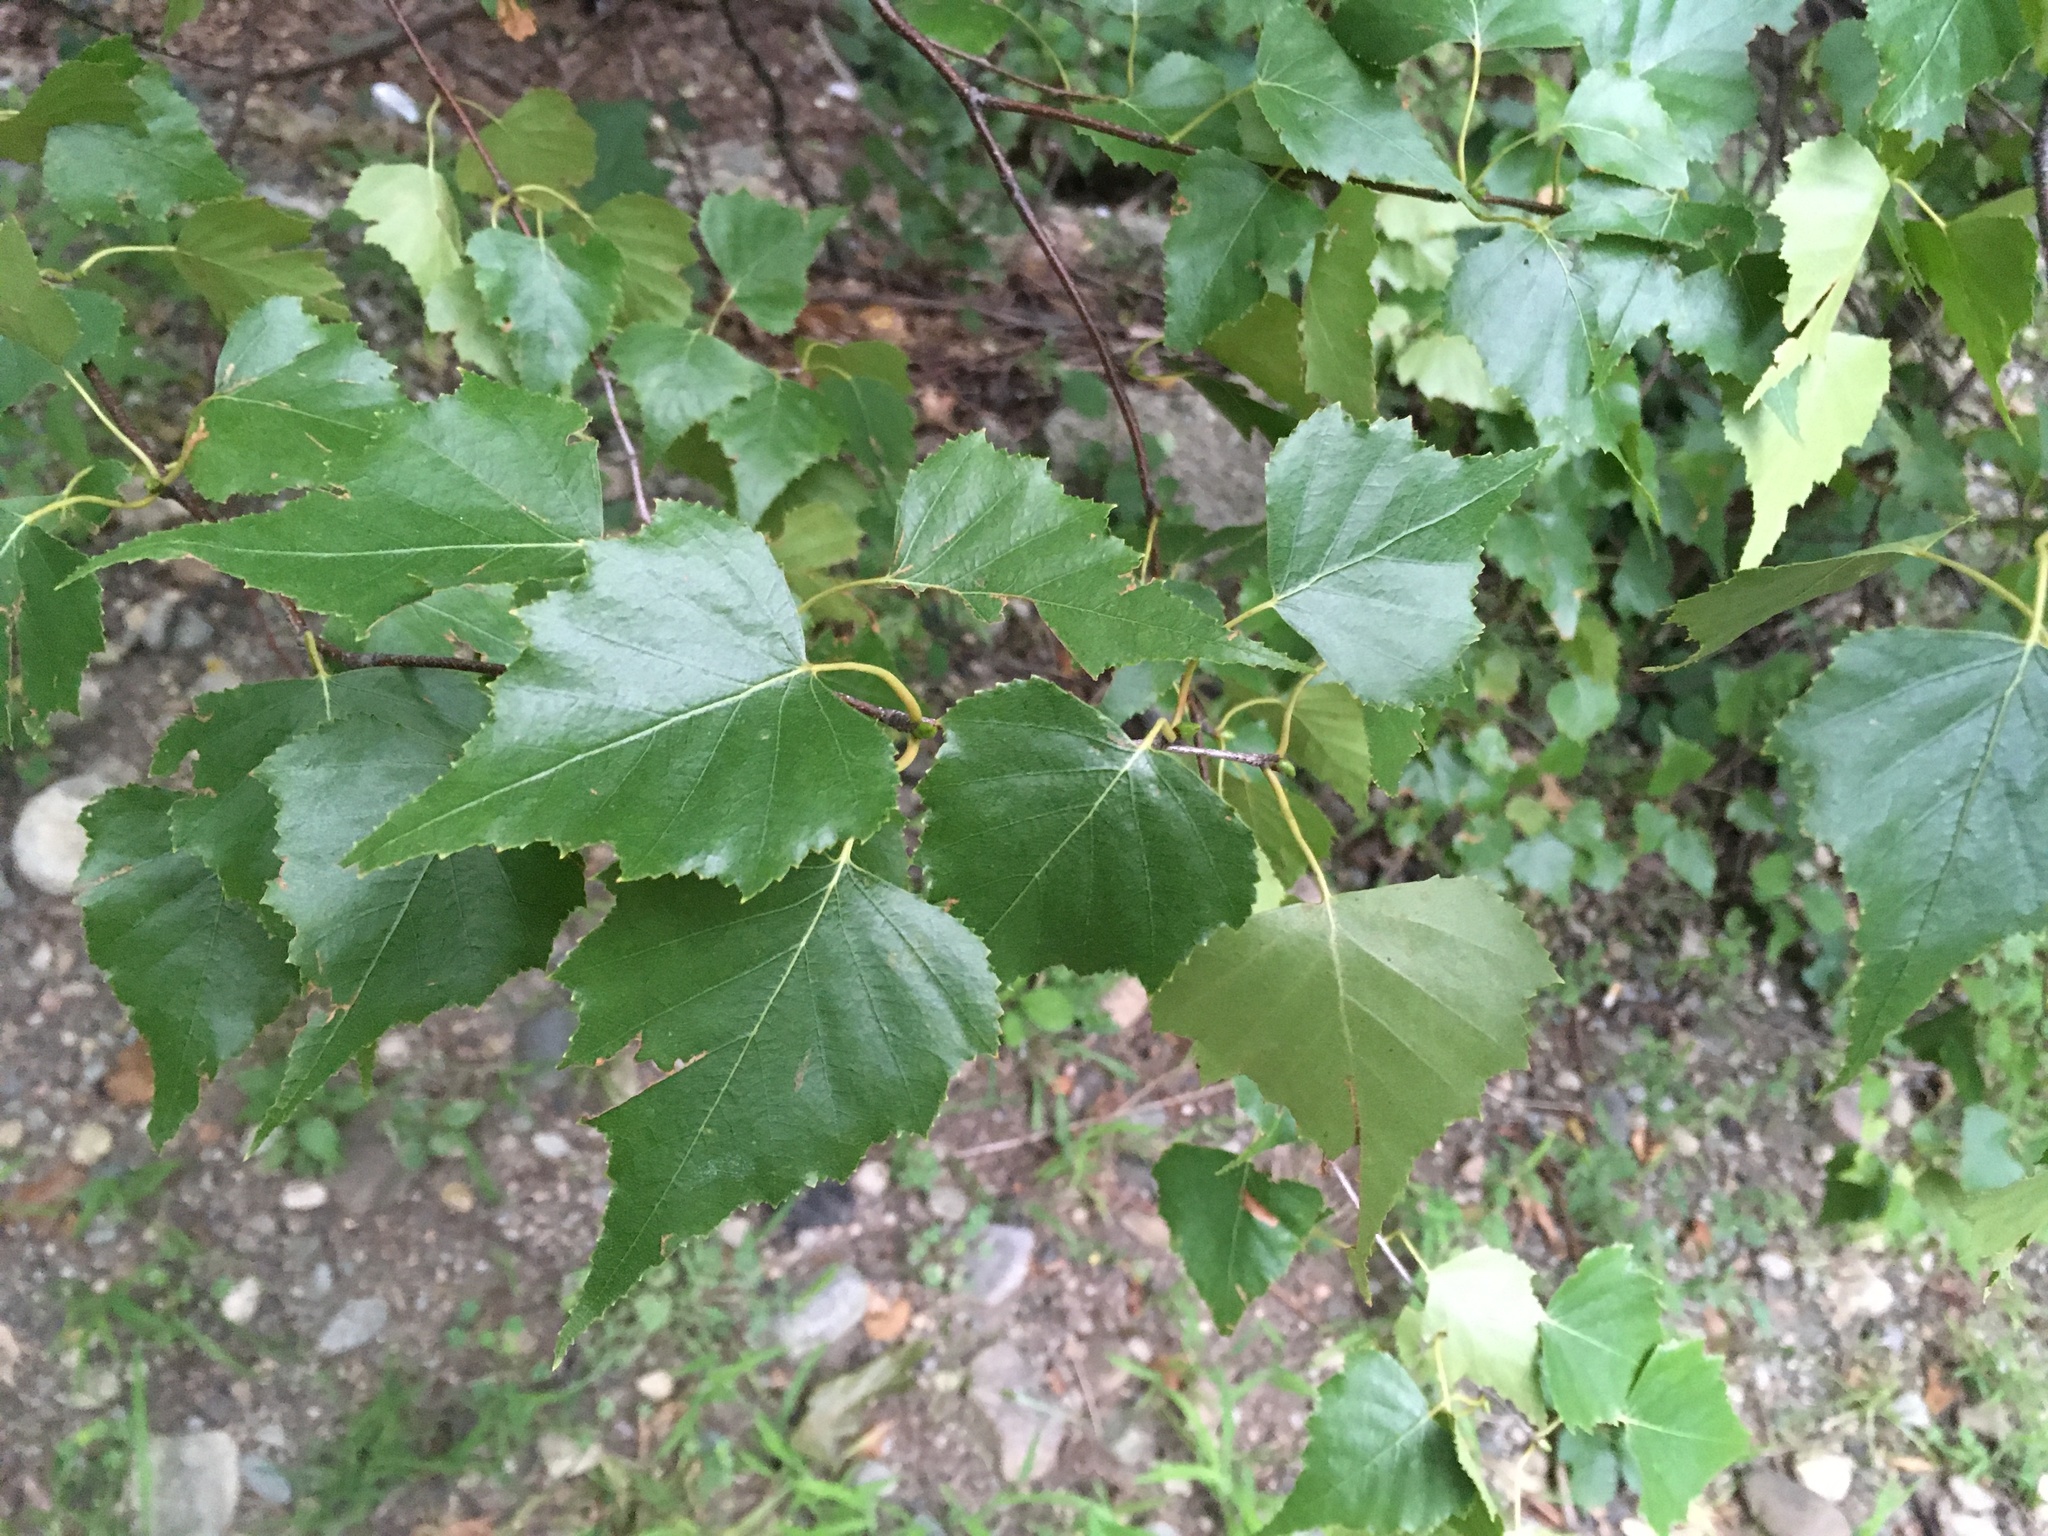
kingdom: Plantae
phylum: Tracheophyta
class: Magnoliopsida
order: Fagales
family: Betulaceae
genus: Betula
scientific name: Betula populifolia
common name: Fire birch
